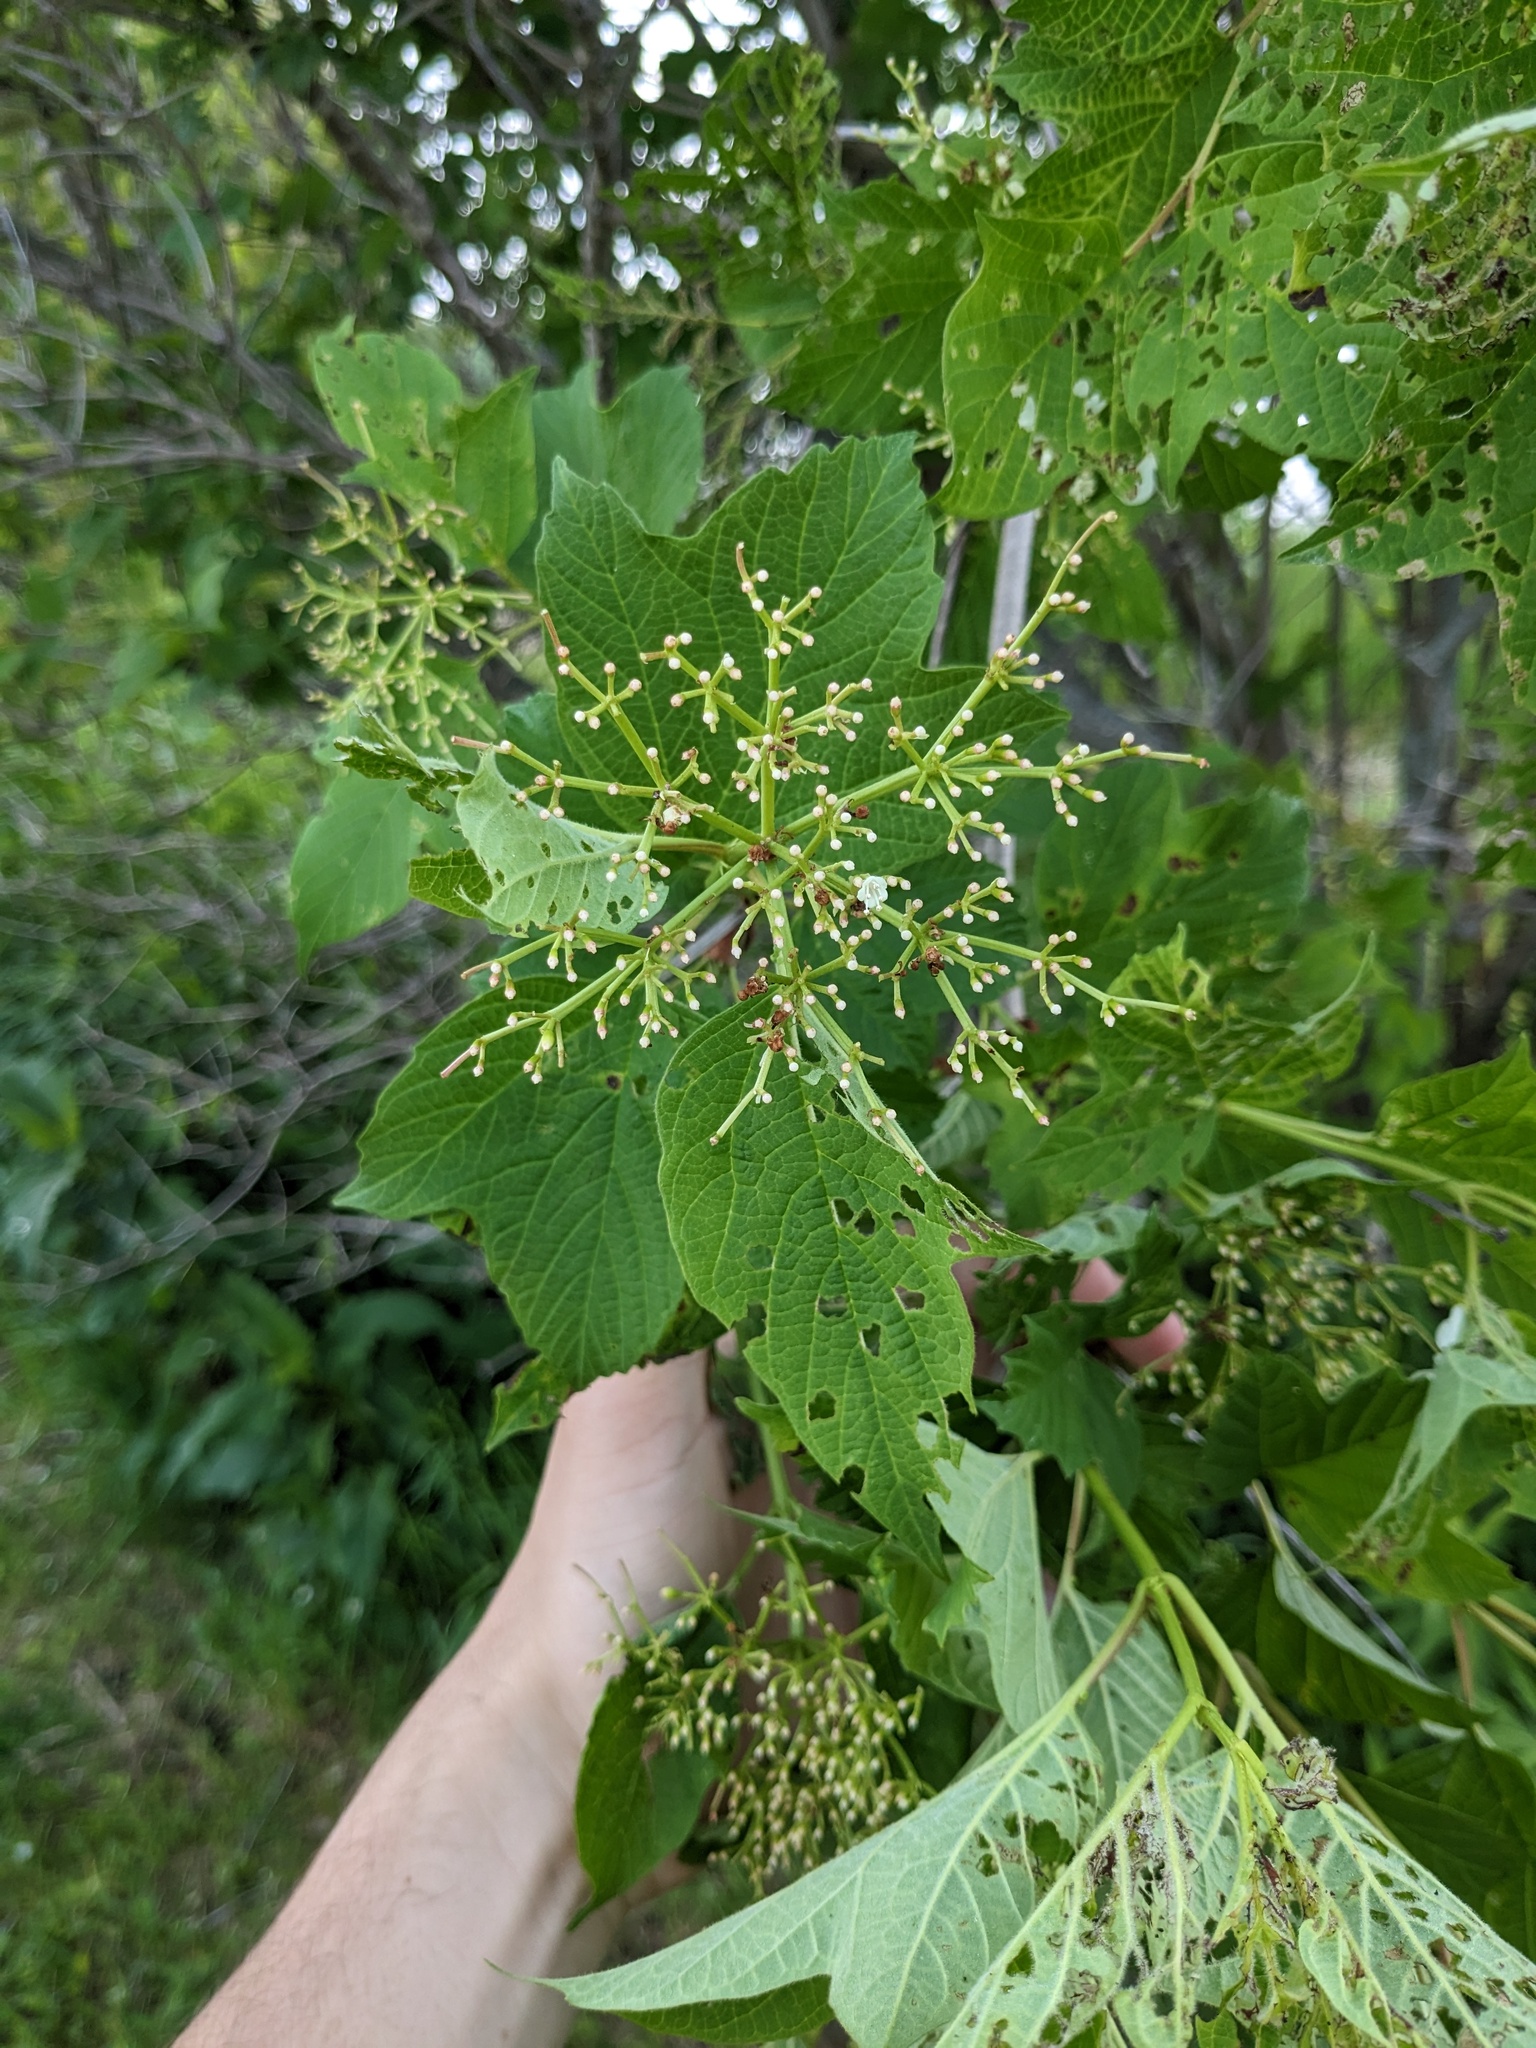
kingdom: Plantae
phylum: Tracheophyta
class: Magnoliopsida
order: Dipsacales
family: Viburnaceae
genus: Viburnum
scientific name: Viburnum opulus
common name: Guelder-rose
